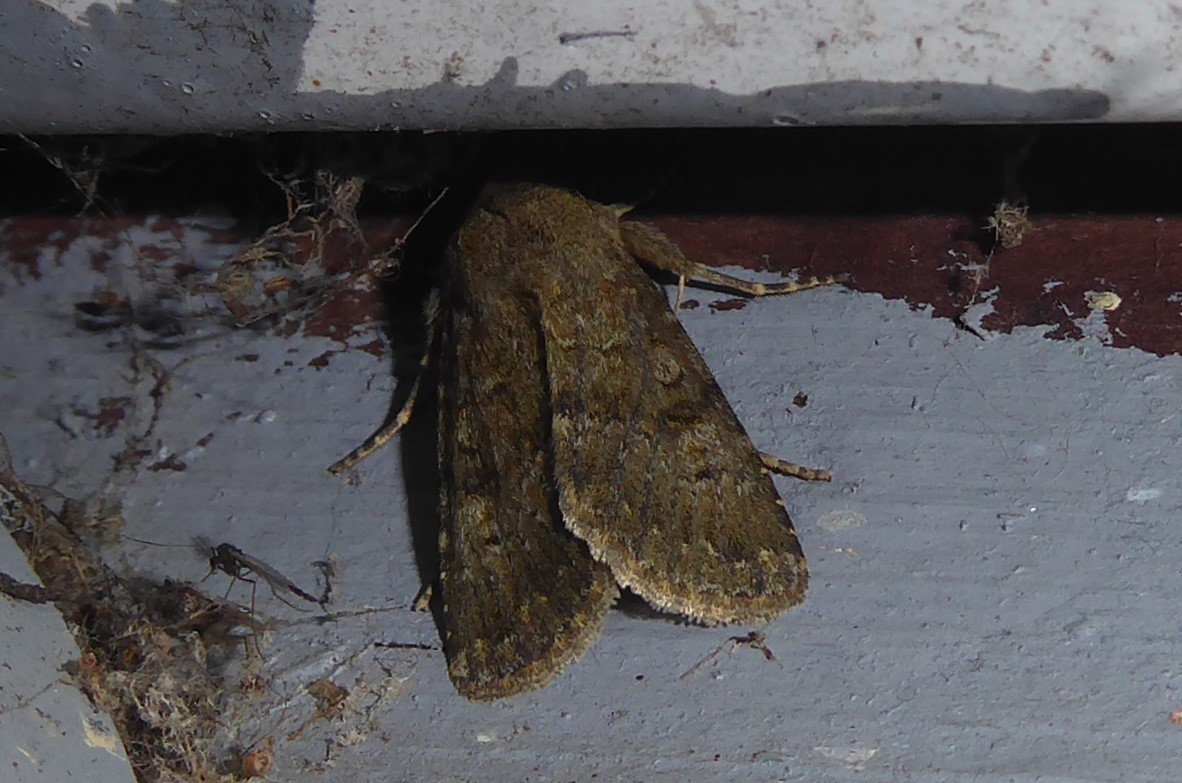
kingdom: Animalia
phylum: Arthropoda
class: Insecta
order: Lepidoptera
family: Noctuidae
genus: Ichneutica
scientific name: Ichneutica moderata
